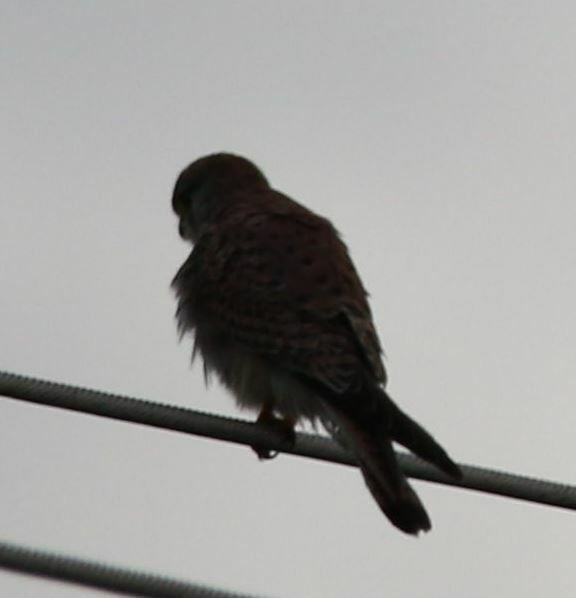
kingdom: Animalia
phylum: Chordata
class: Aves
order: Falconiformes
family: Falconidae
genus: Falco
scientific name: Falco tinnunculus
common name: Common kestrel
